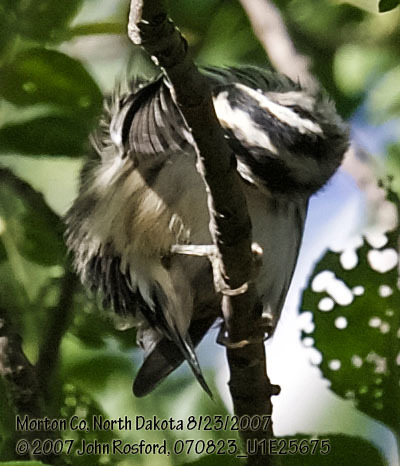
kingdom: Animalia
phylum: Chordata
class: Aves
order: Passeriformes
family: Parulidae
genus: Mniotilta
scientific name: Mniotilta varia
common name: Black-and-white warbler
